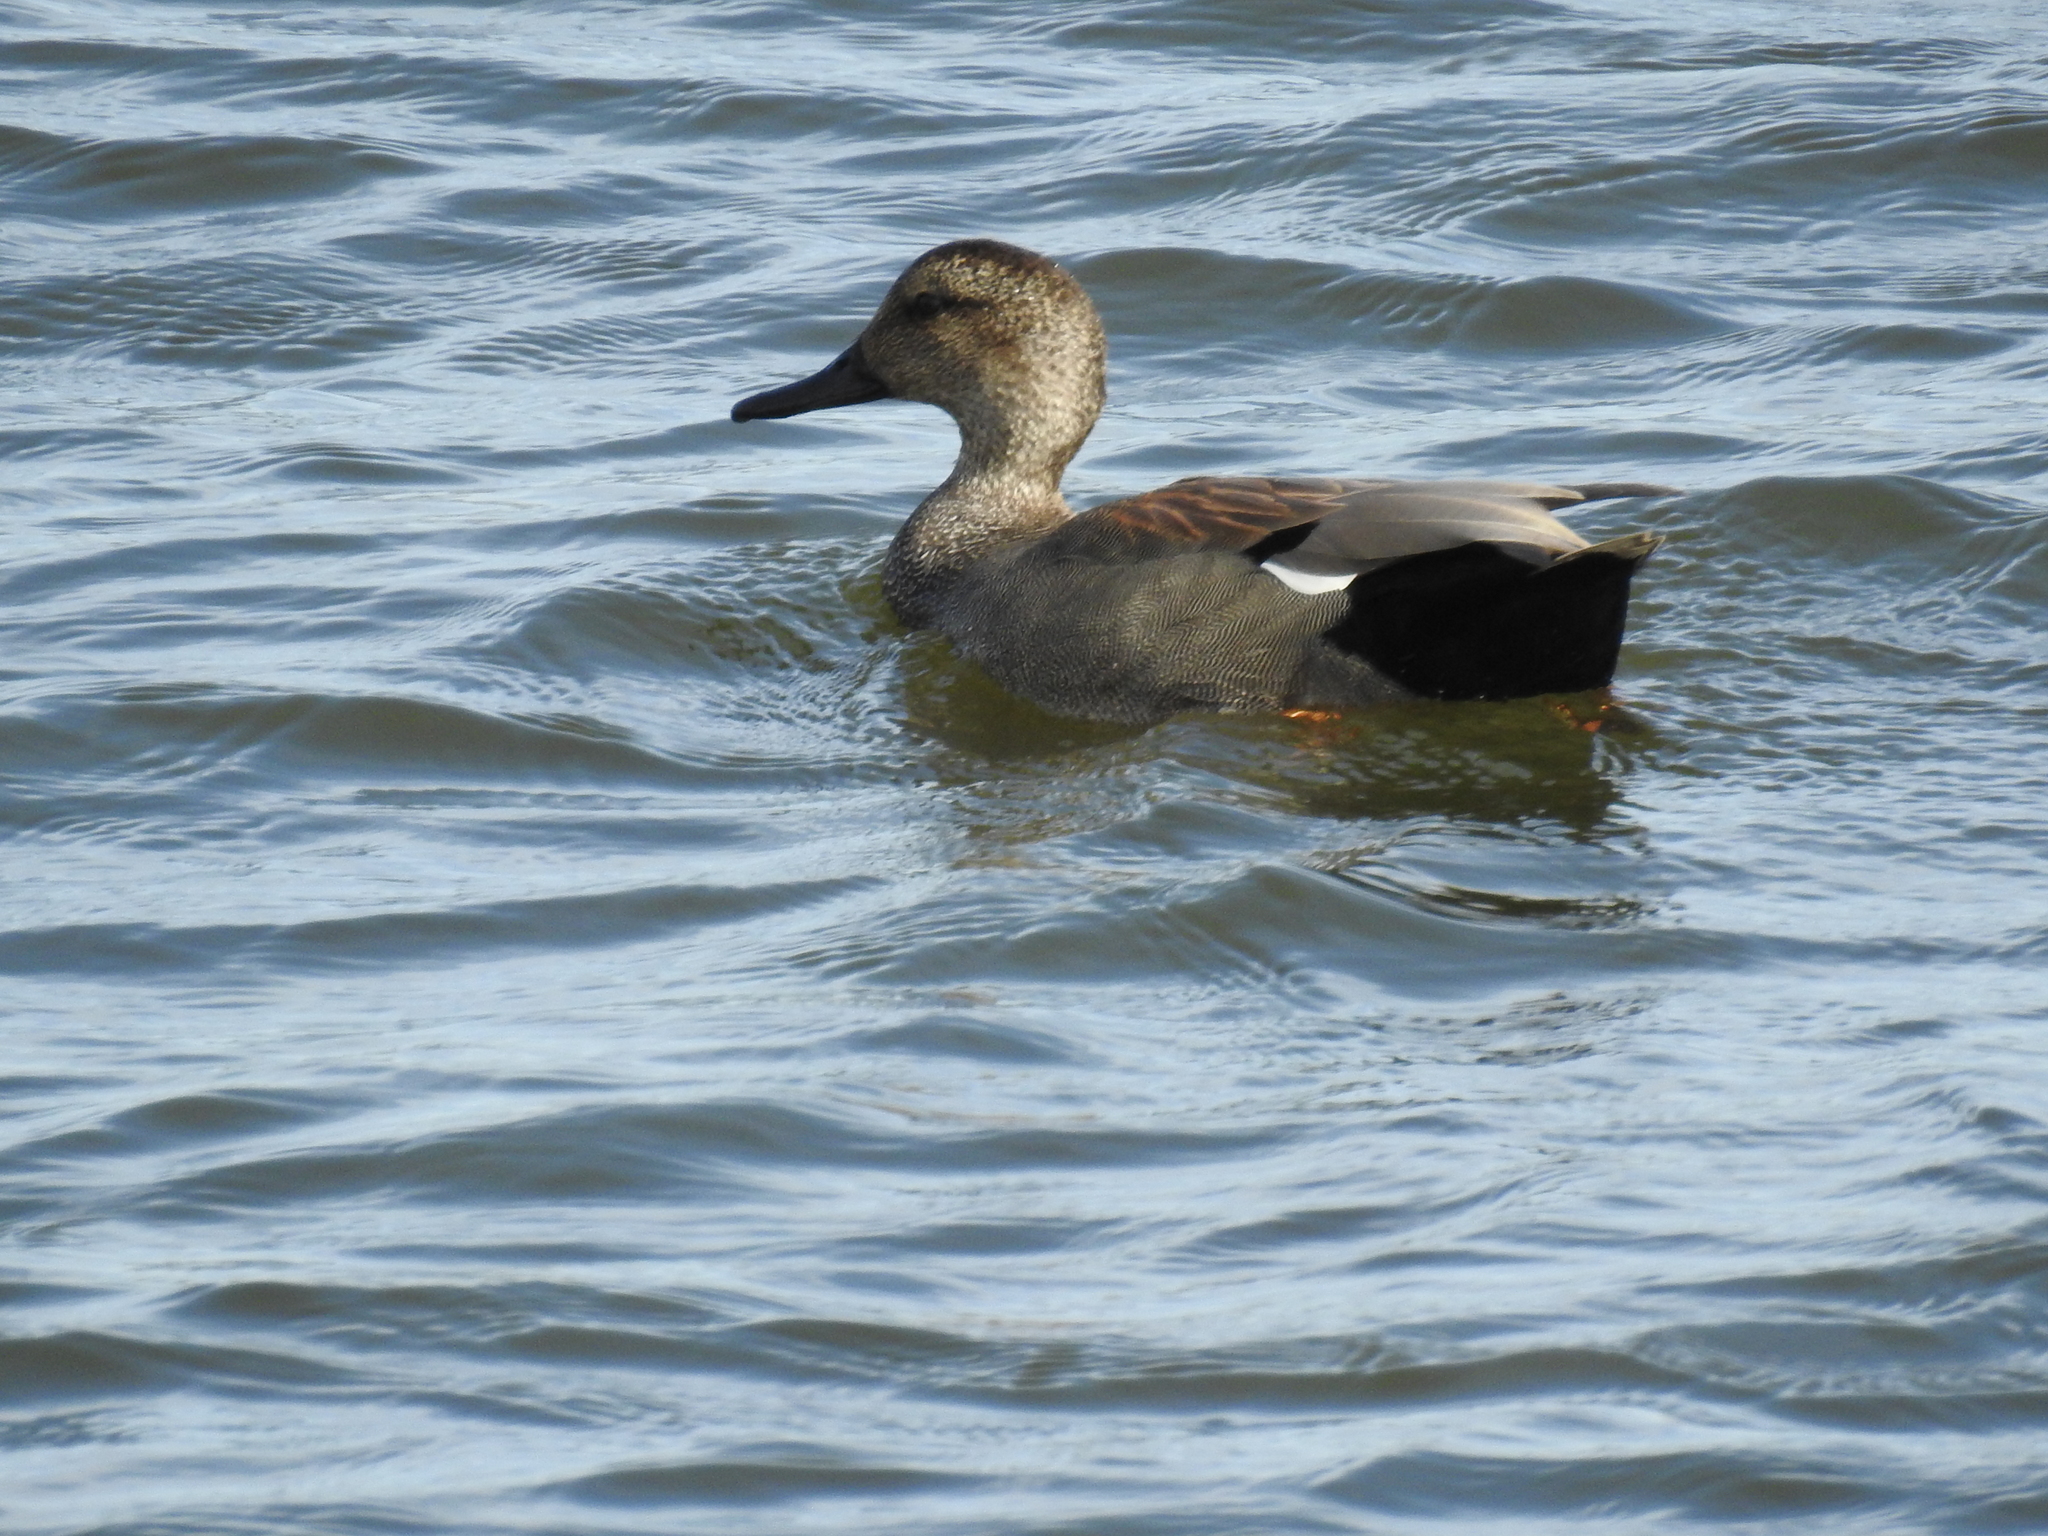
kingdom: Animalia
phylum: Chordata
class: Aves
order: Anseriformes
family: Anatidae
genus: Mareca
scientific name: Mareca strepera
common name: Gadwall
